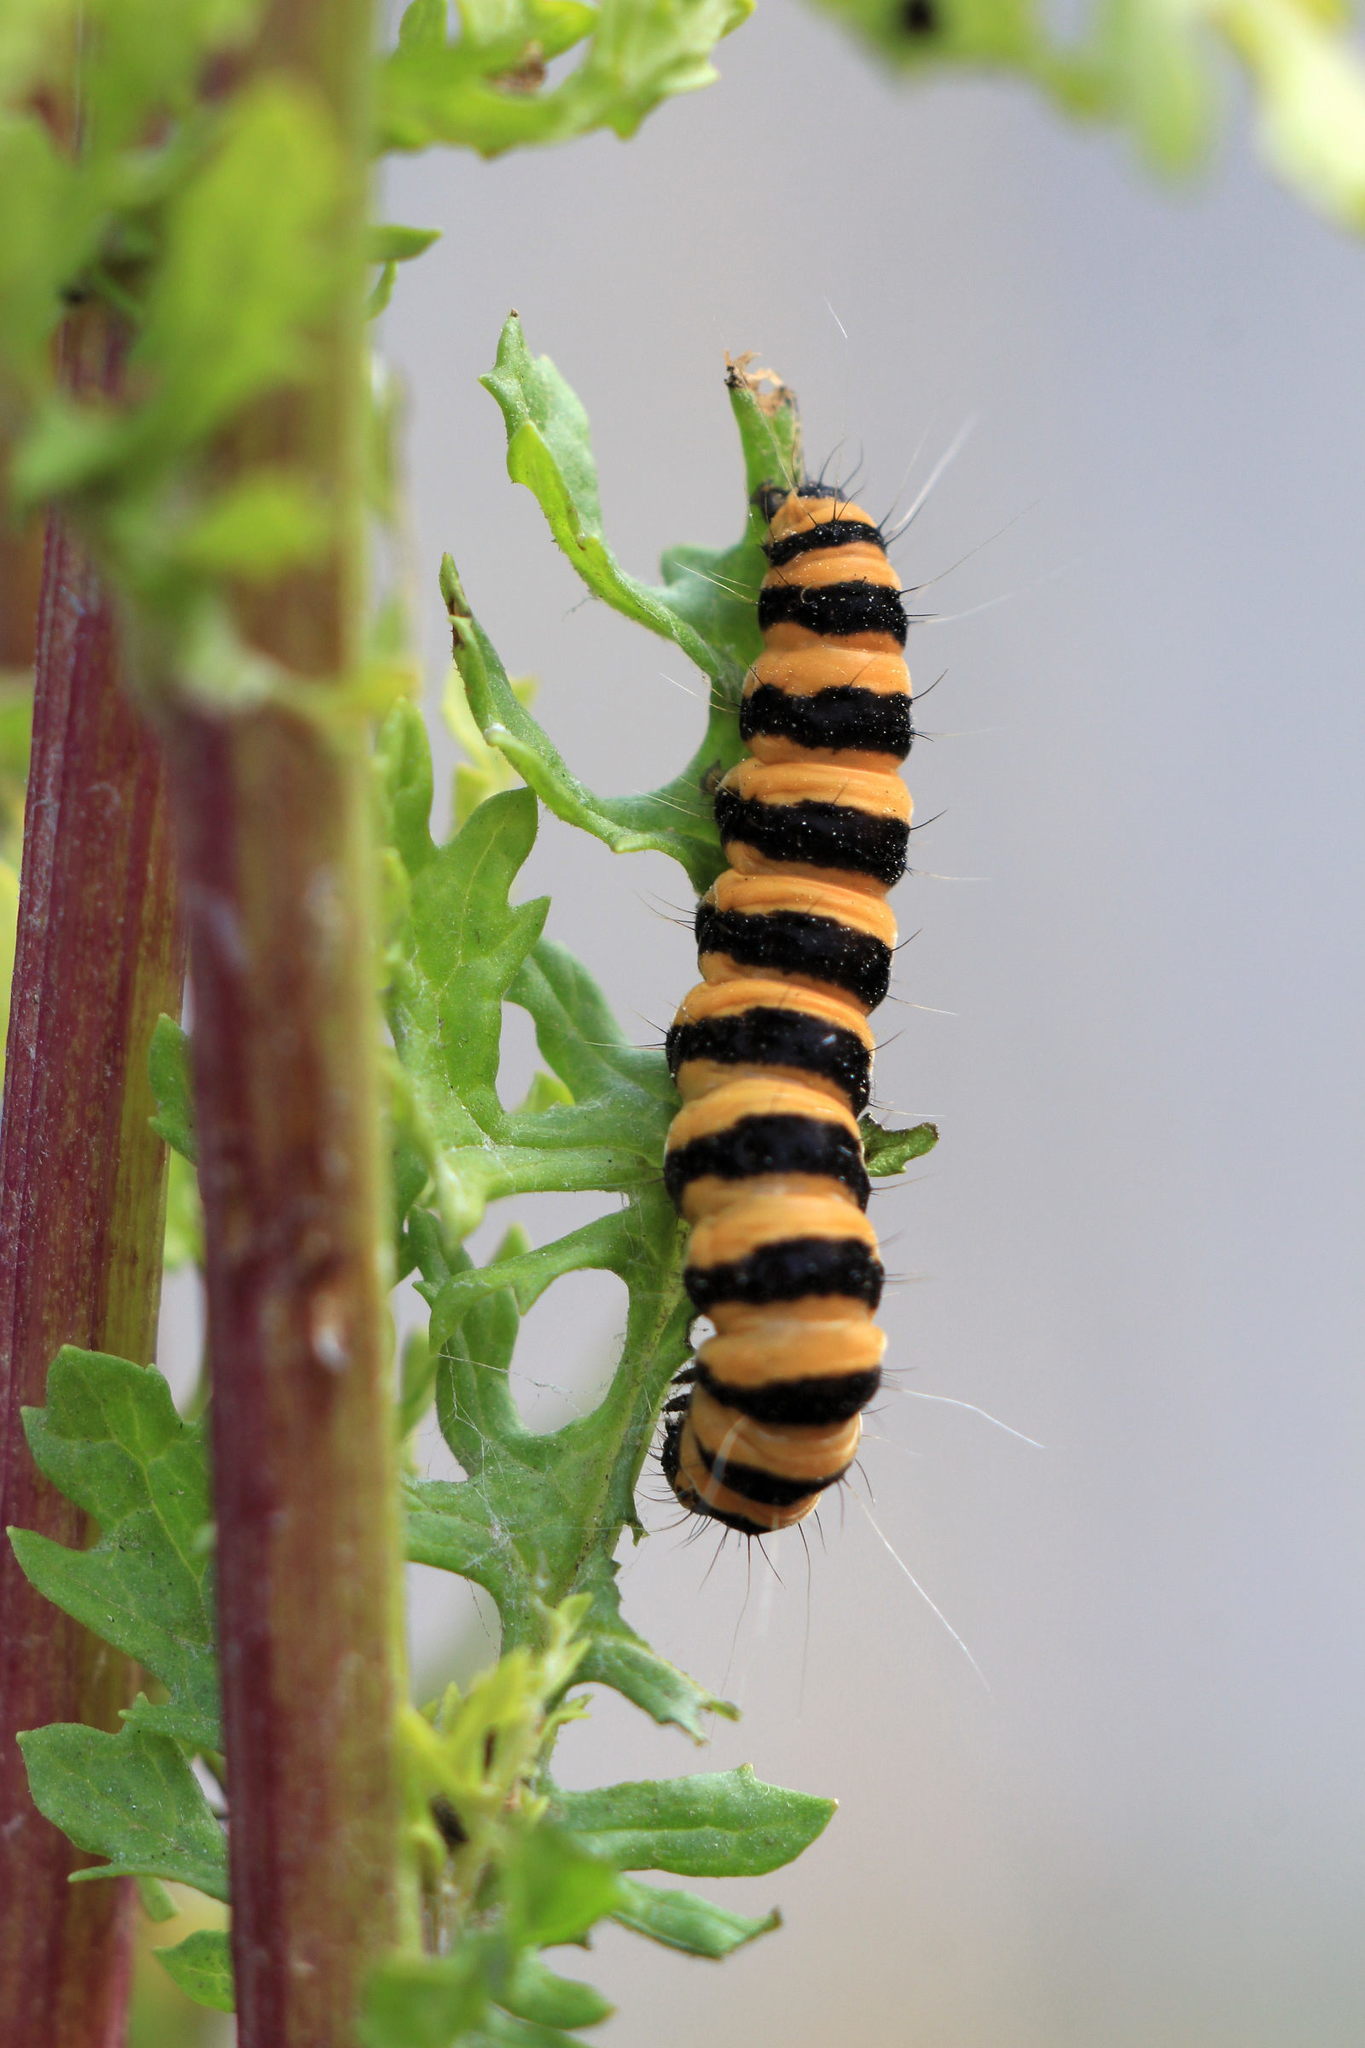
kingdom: Animalia
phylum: Arthropoda
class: Insecta
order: Lepidoptera
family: Erebidae
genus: Tyria
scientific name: Tyria jacobaeae
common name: Cinnabar
